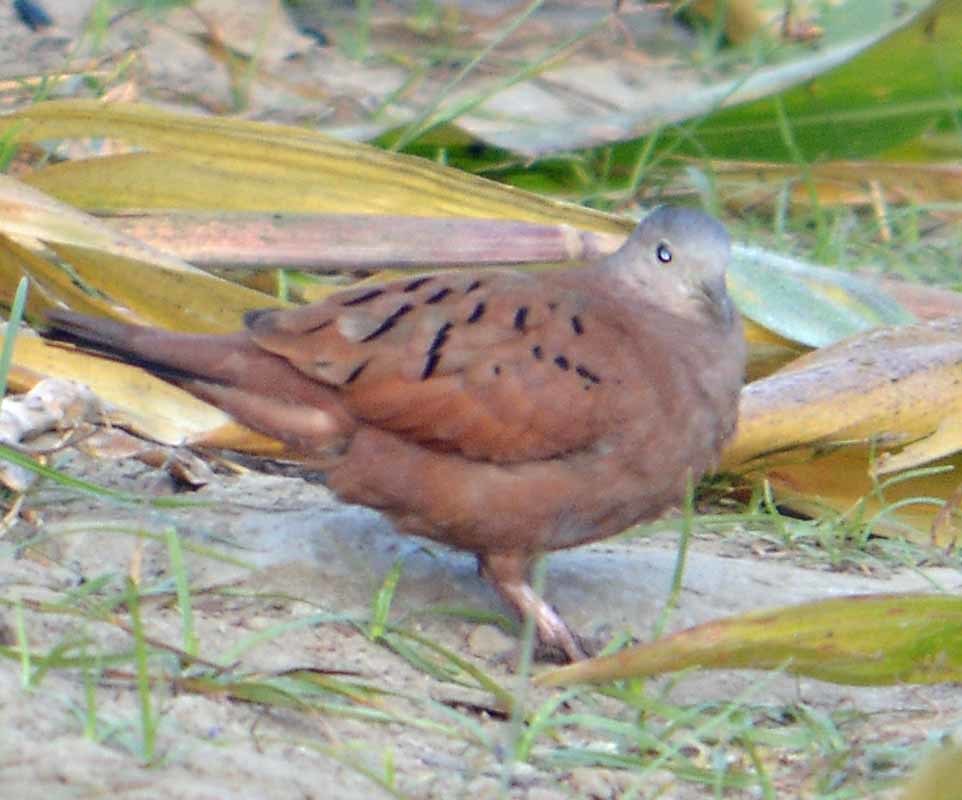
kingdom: Animalia
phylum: Chordata
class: Aves
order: Columbiformes
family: Columbidae
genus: Columbina
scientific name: Columbina talpacoti
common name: Ruddy ground dove
